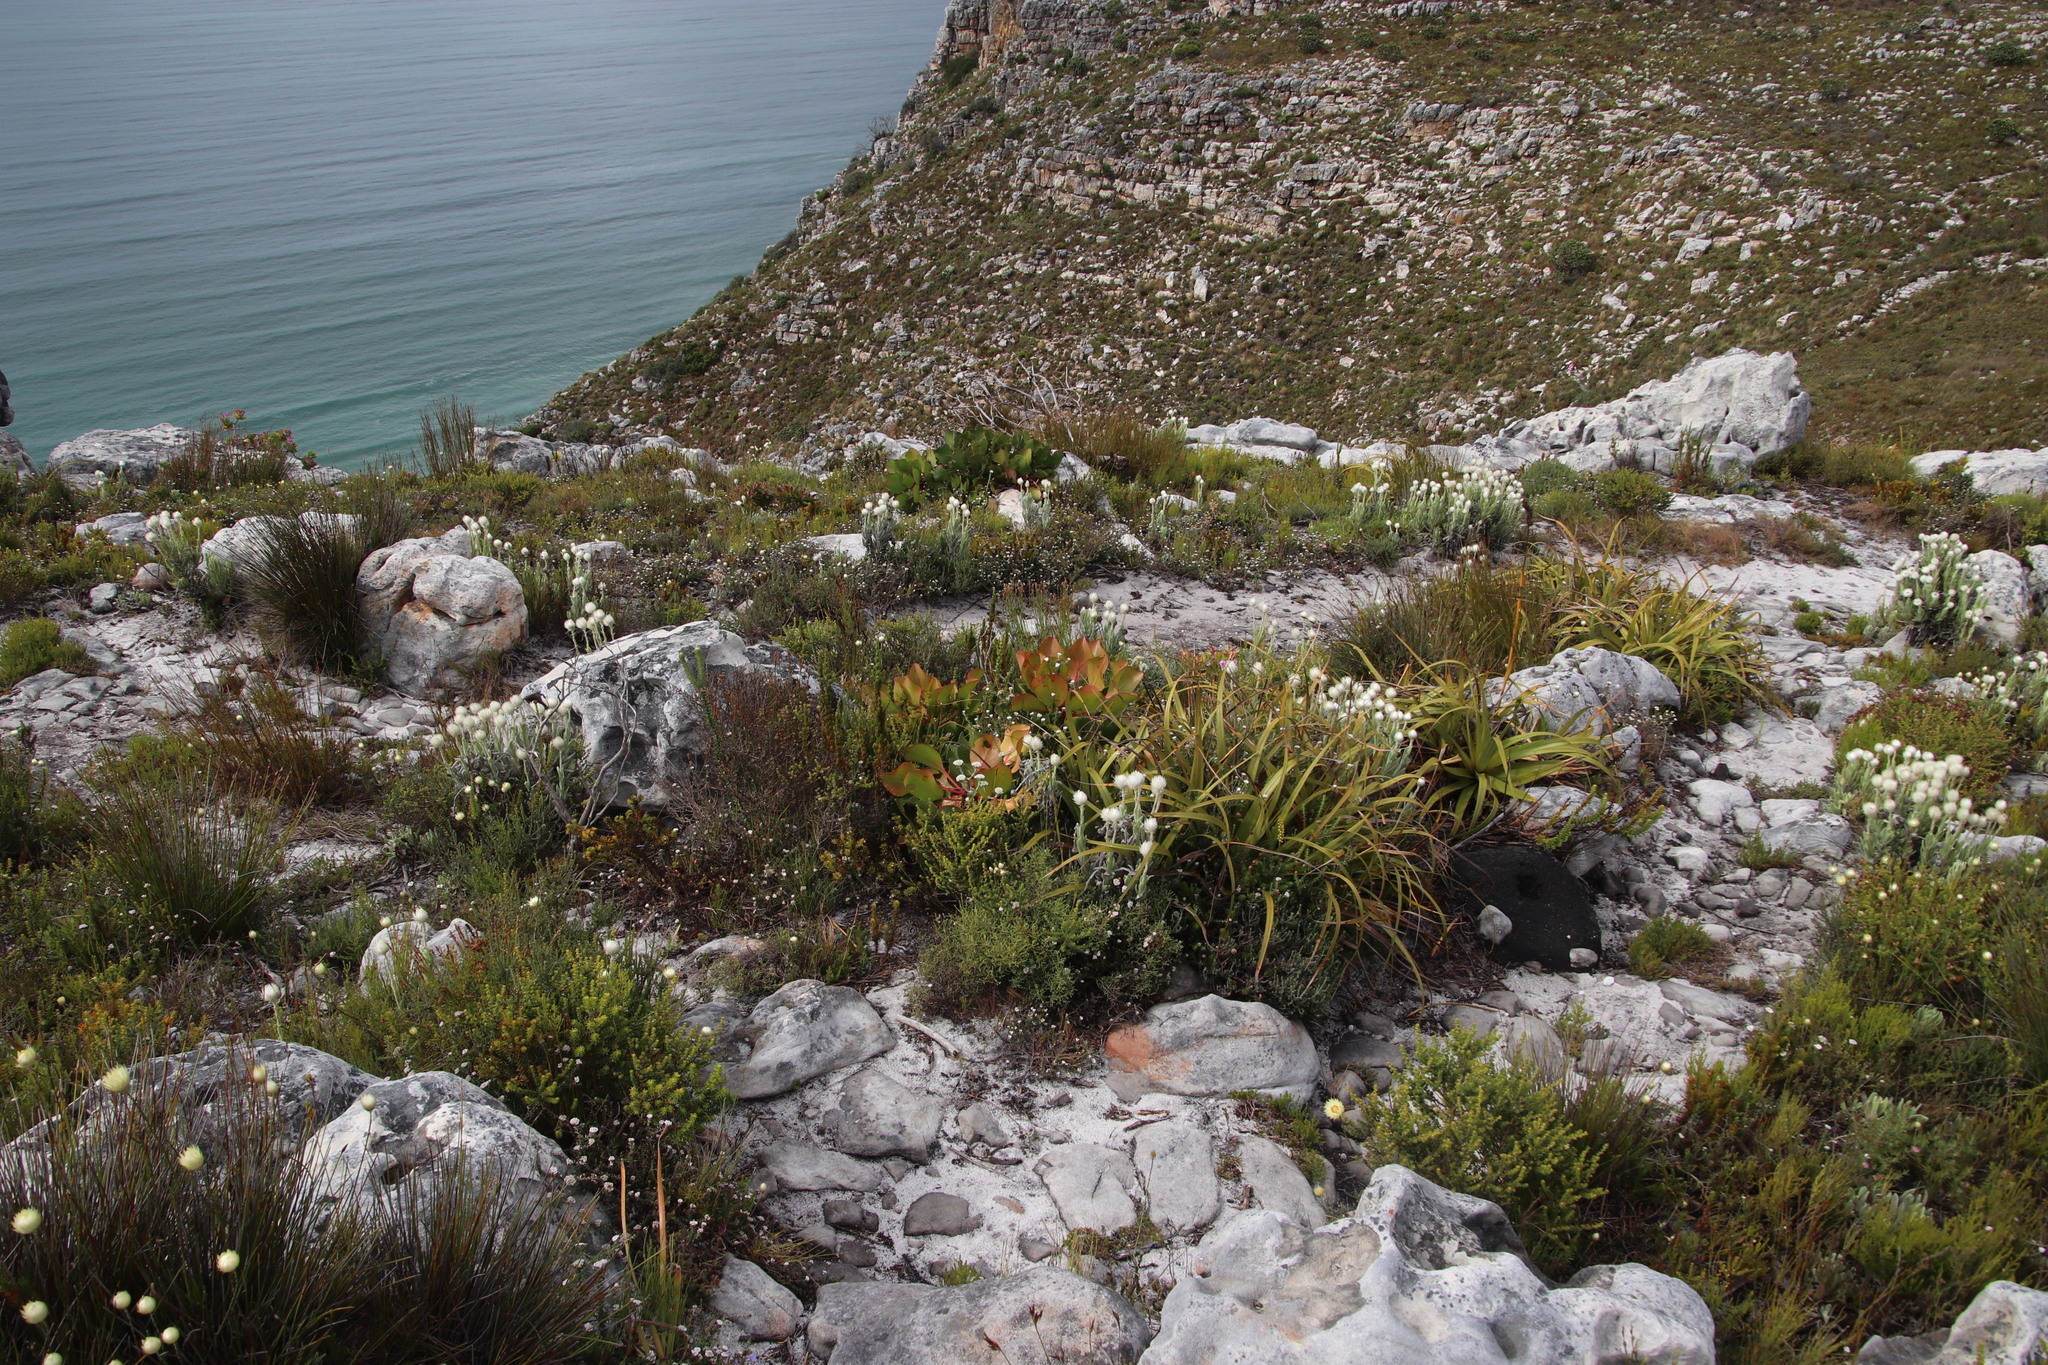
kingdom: Plantae
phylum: Tracheophyta
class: Magnoliopsida
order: Proteales
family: Proteaceae
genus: Protea
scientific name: Protea cynaroides
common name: King protea
